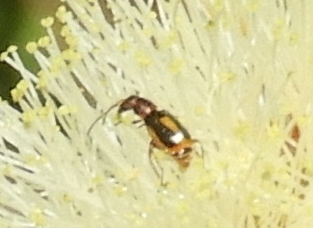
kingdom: Animalia
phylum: Arthropoda
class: Insecta
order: Coleoptera
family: Melyridae
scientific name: Melyridae
